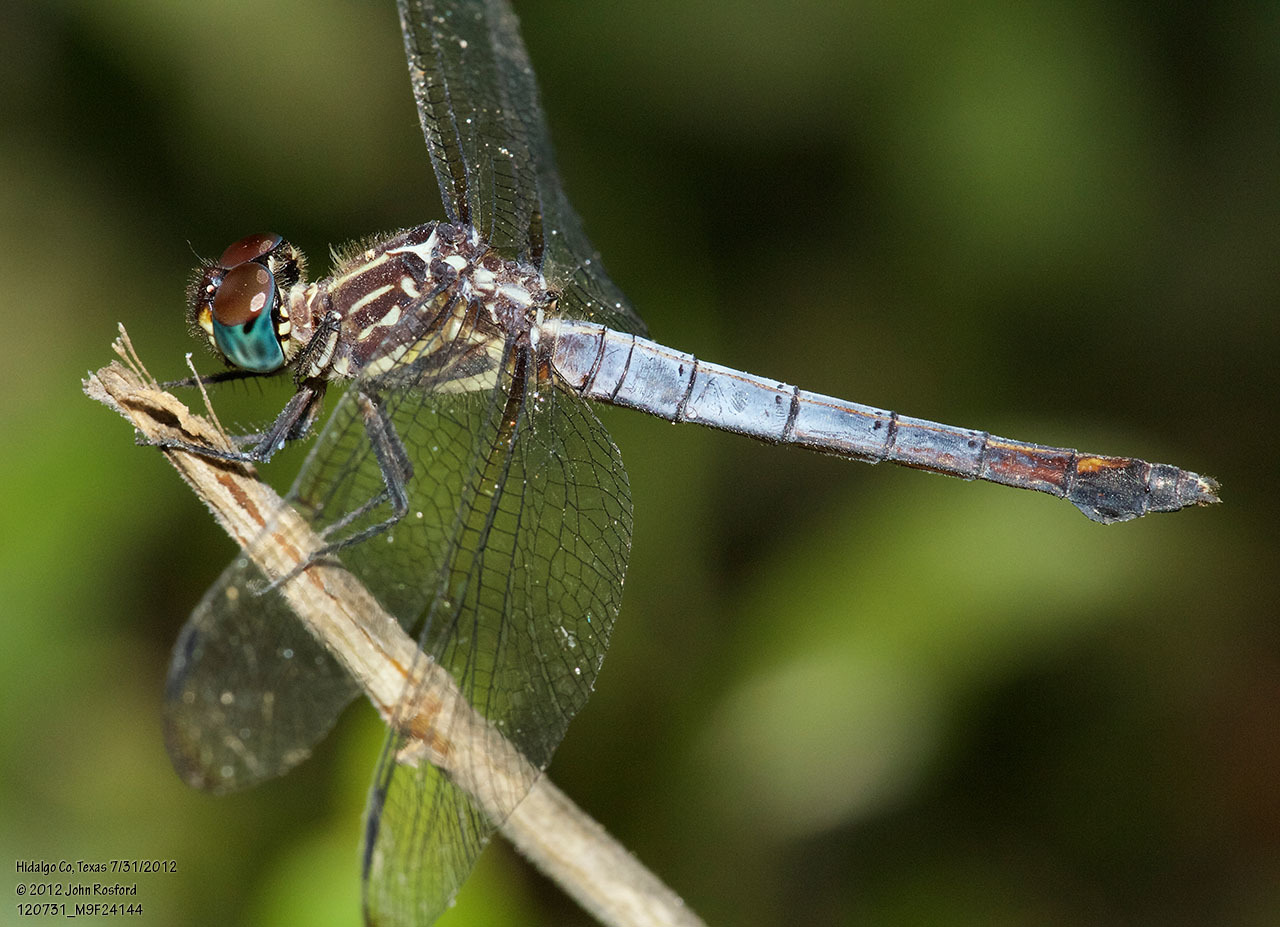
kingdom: Animalia
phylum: Arthropoda
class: Insecta
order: Odonata
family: Libellulidae
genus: Cannaphila
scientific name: Cannaphila insularis
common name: Gray-waisted skimmer
